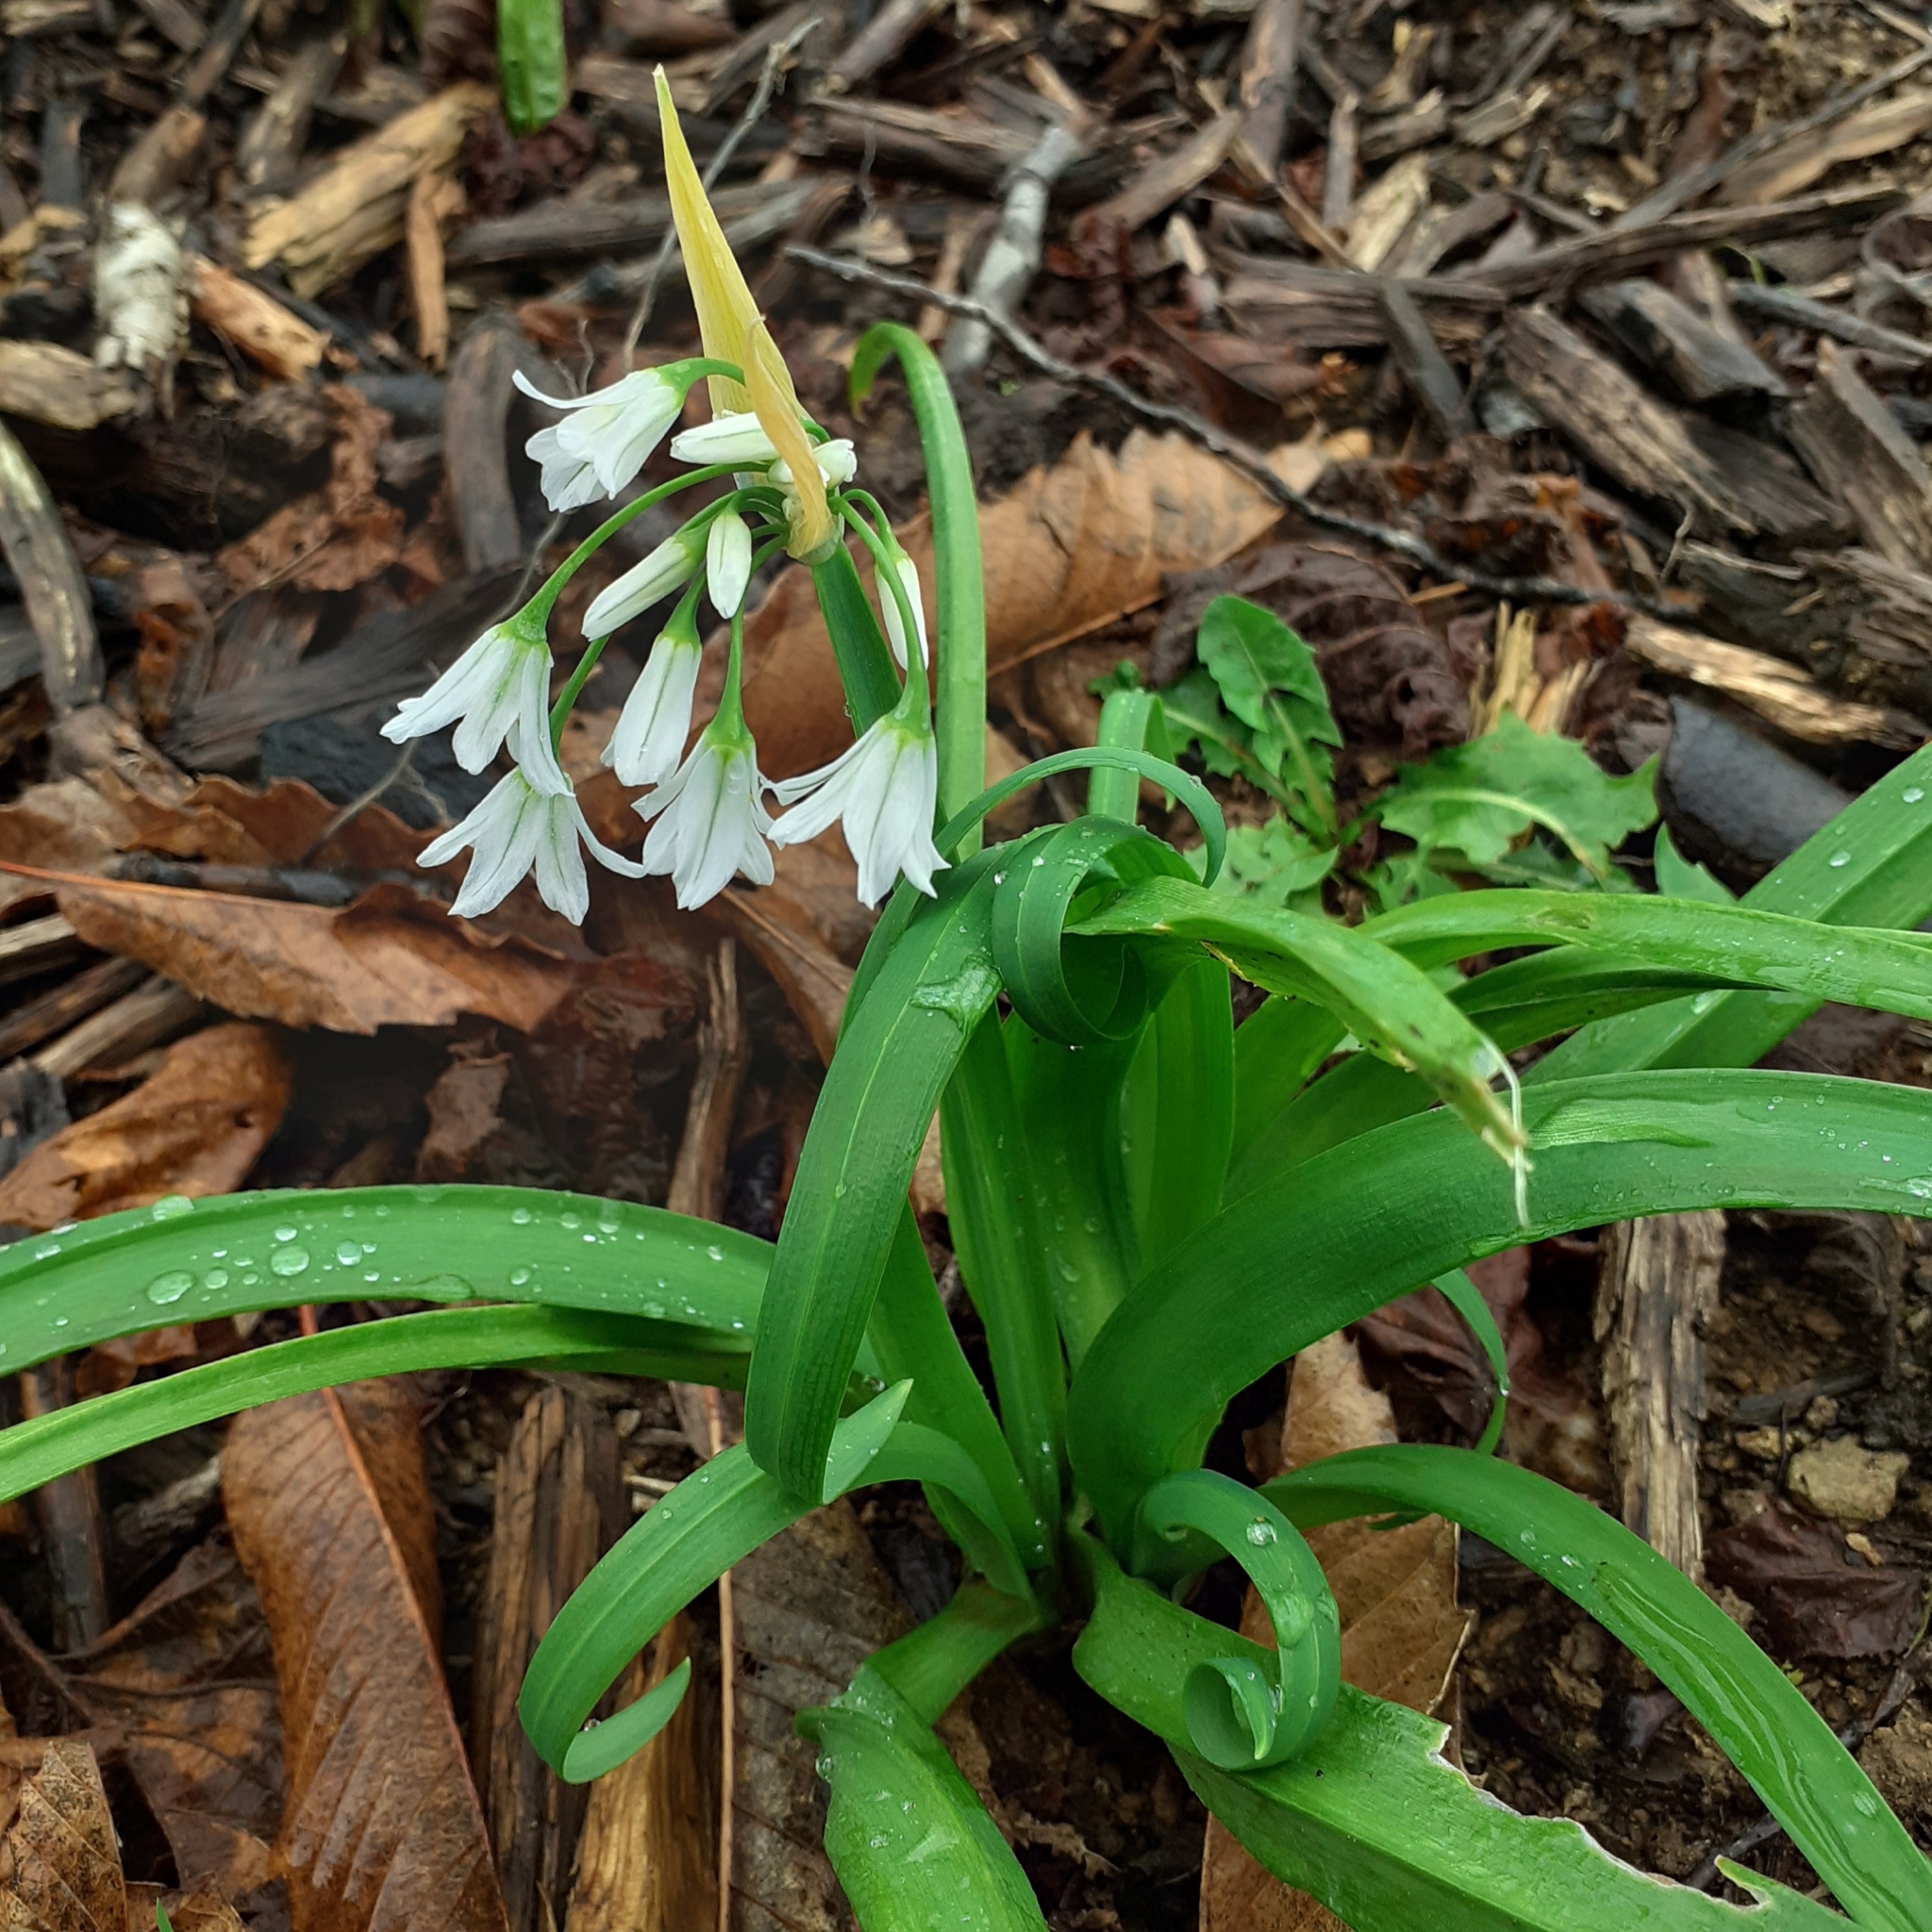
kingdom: Plantae
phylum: Tracheophyta
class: Liliopsida
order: Asparagales
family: Amaryllidaceae
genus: Allium
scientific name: Allium triquetrum
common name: Three-cornered garlic
